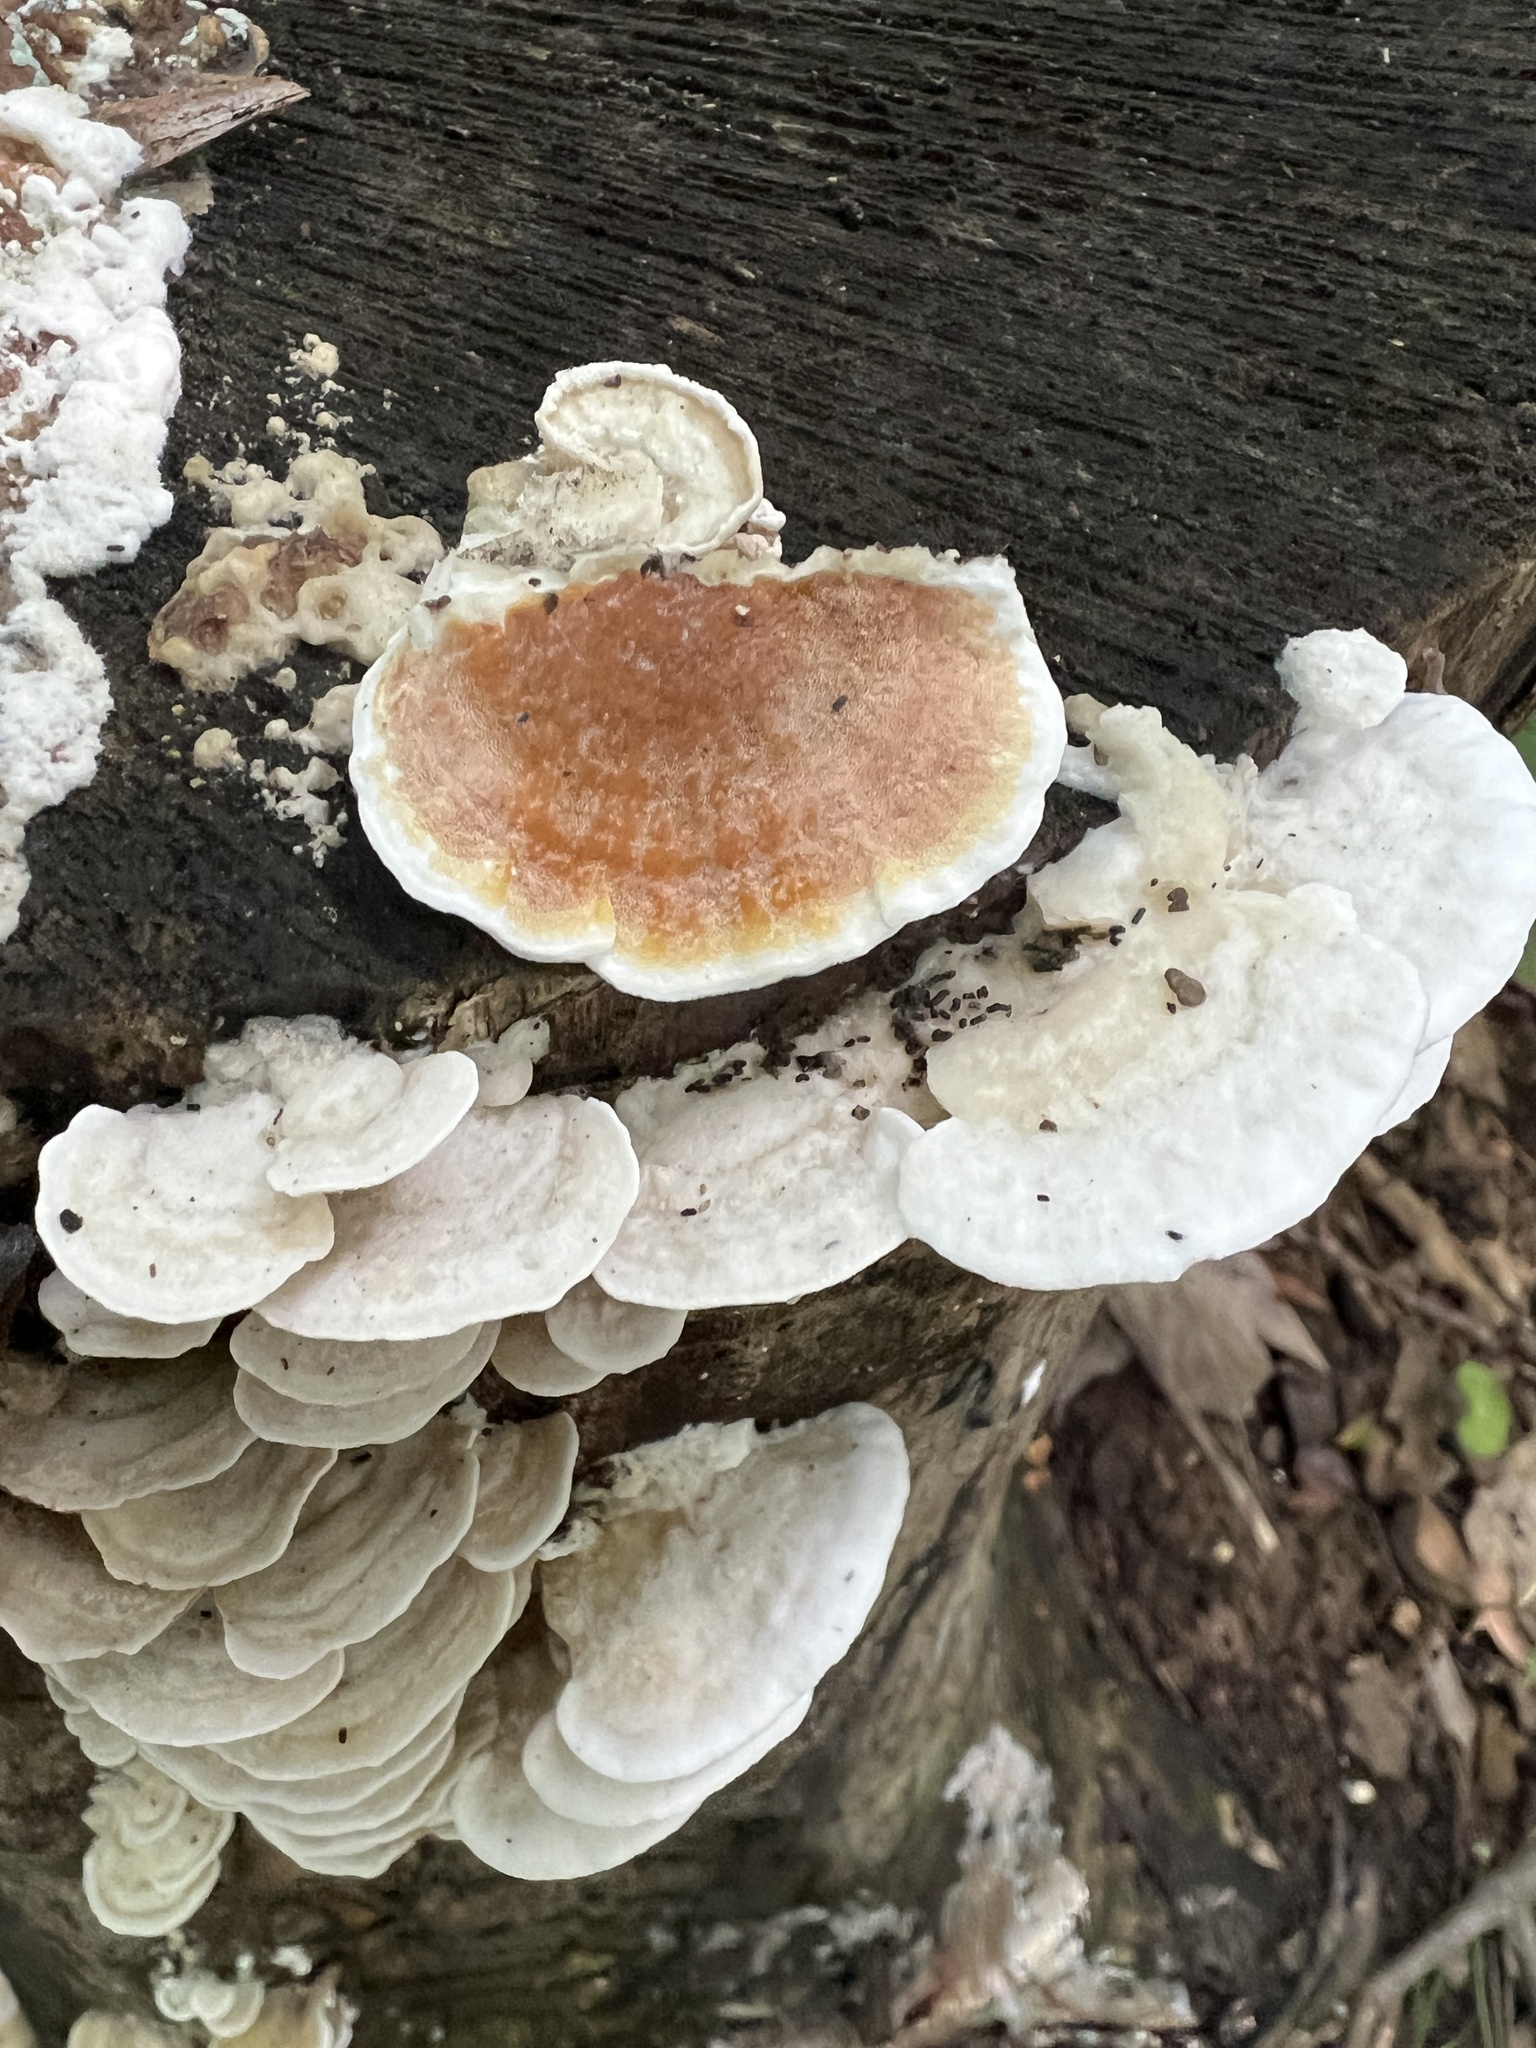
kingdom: Fungi
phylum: Basidiomycota
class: Agaricomycetes
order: Polyporales
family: Irpicaceae
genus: Vitreoporus
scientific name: Vitreoporus dichrous
